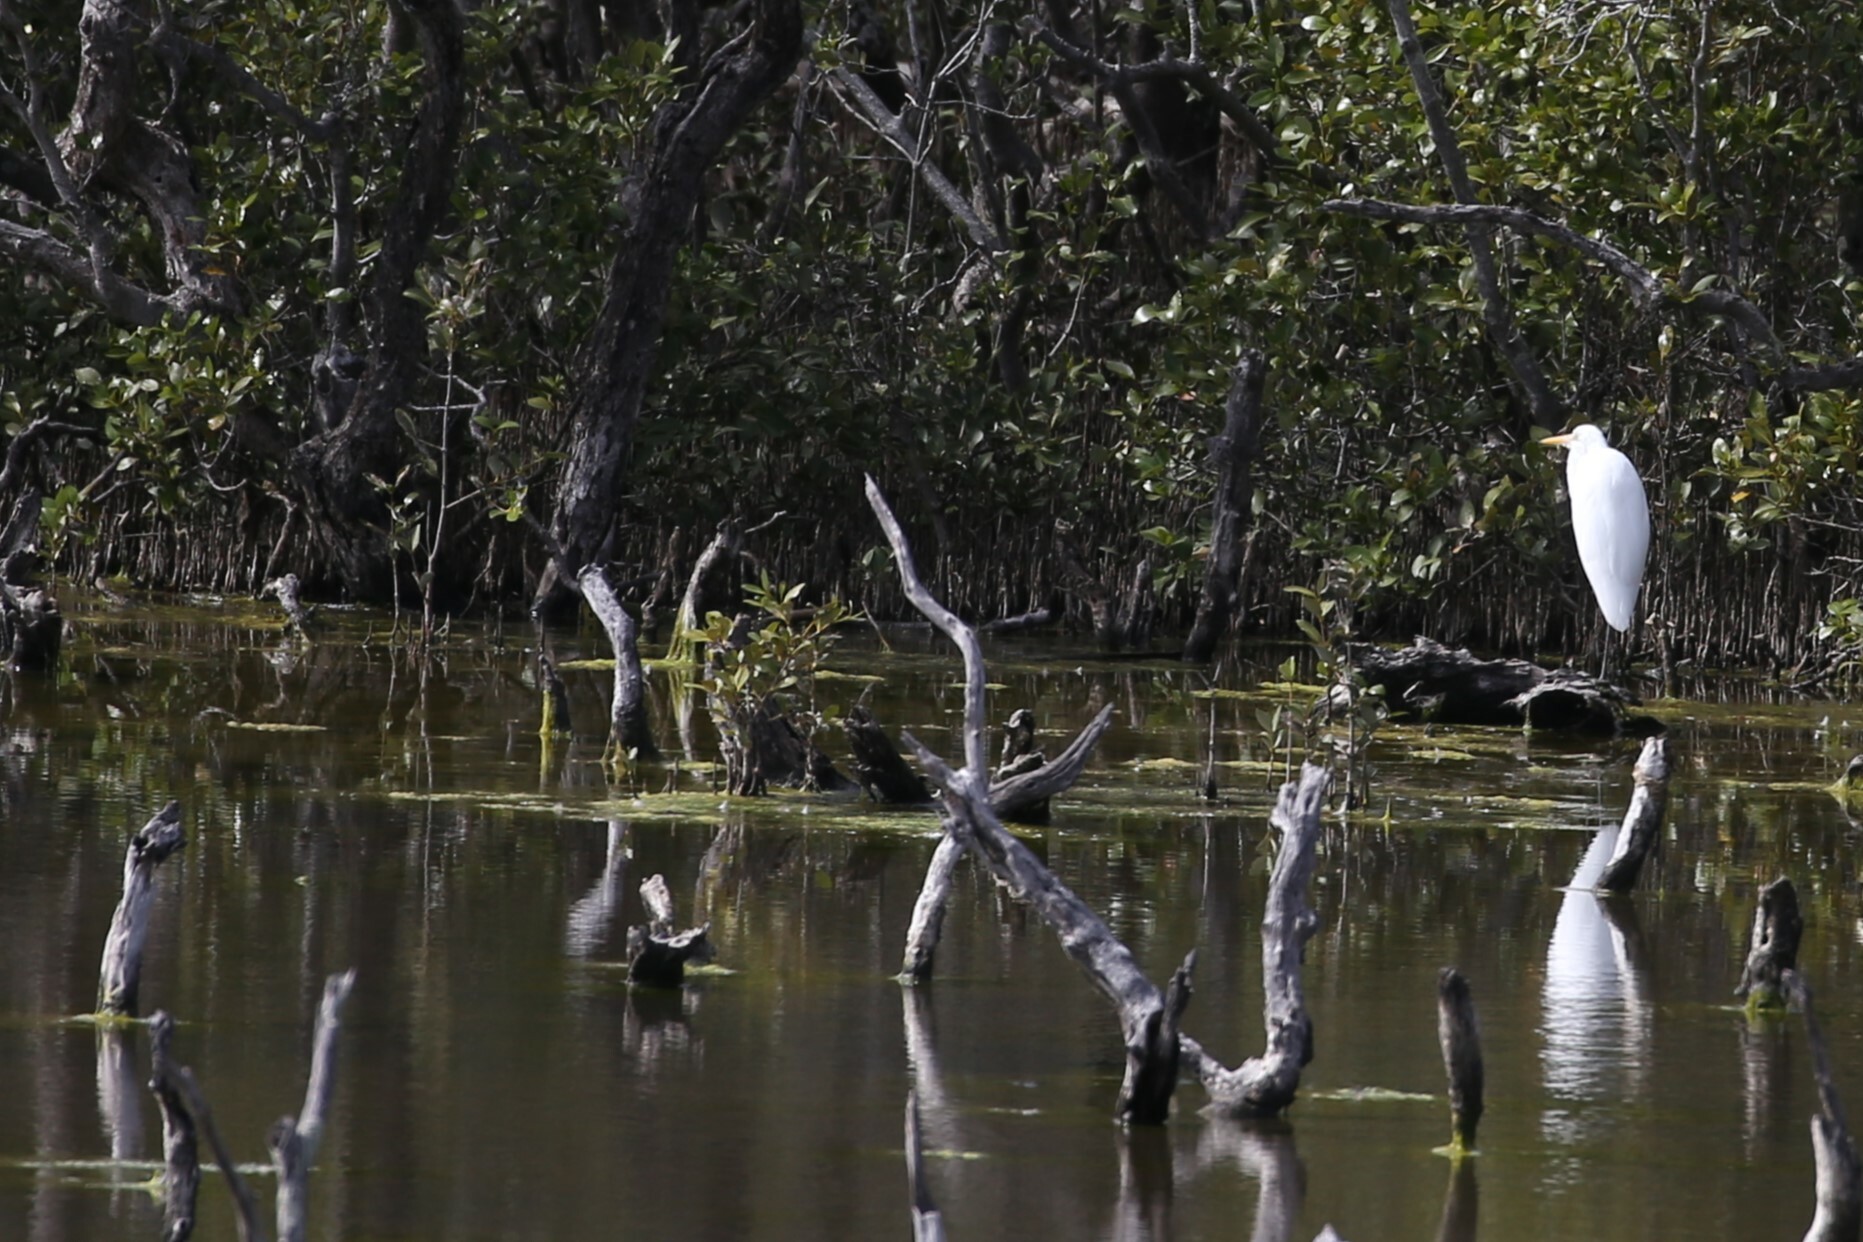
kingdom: Animalia
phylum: Chordata
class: Aves
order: Pelecaniformes
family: Ardeidae
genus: Ardea
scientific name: Ardea alba
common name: Great egret
